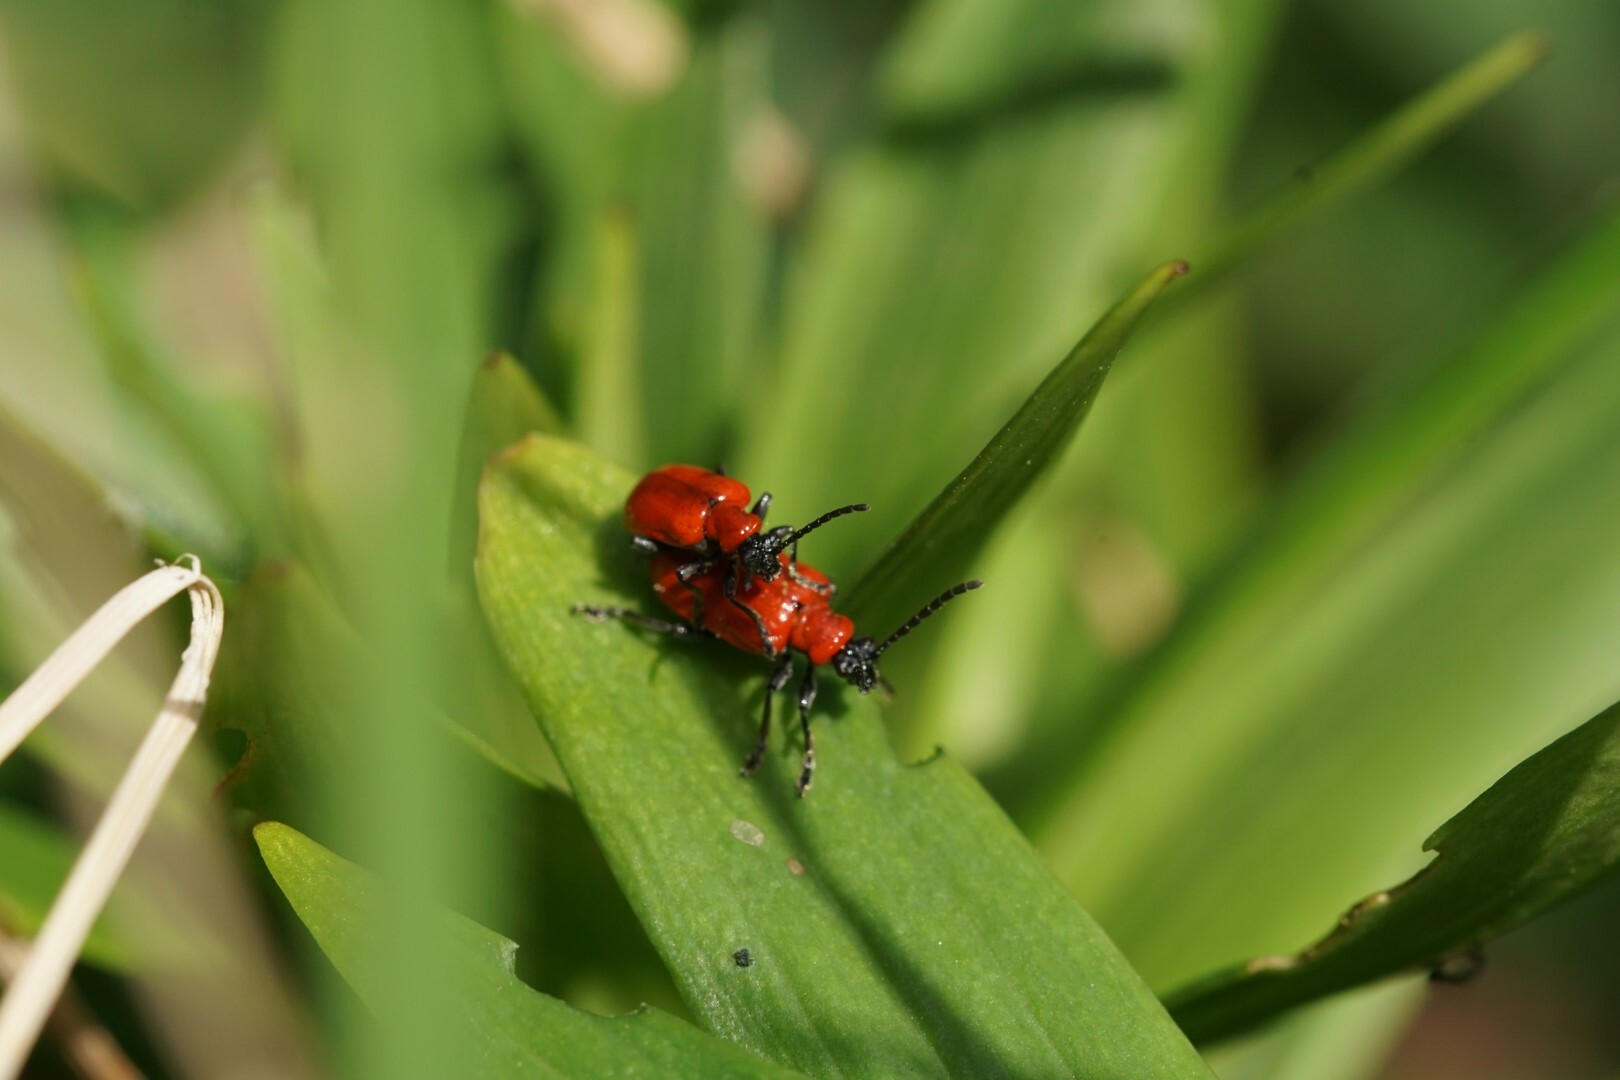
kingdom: Animalia
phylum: Arthropoda
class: Insecta
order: Coleoptera
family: Chrysomelidae
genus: Lilioceris
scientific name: Lilioceris lilii
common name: Lily beetle
